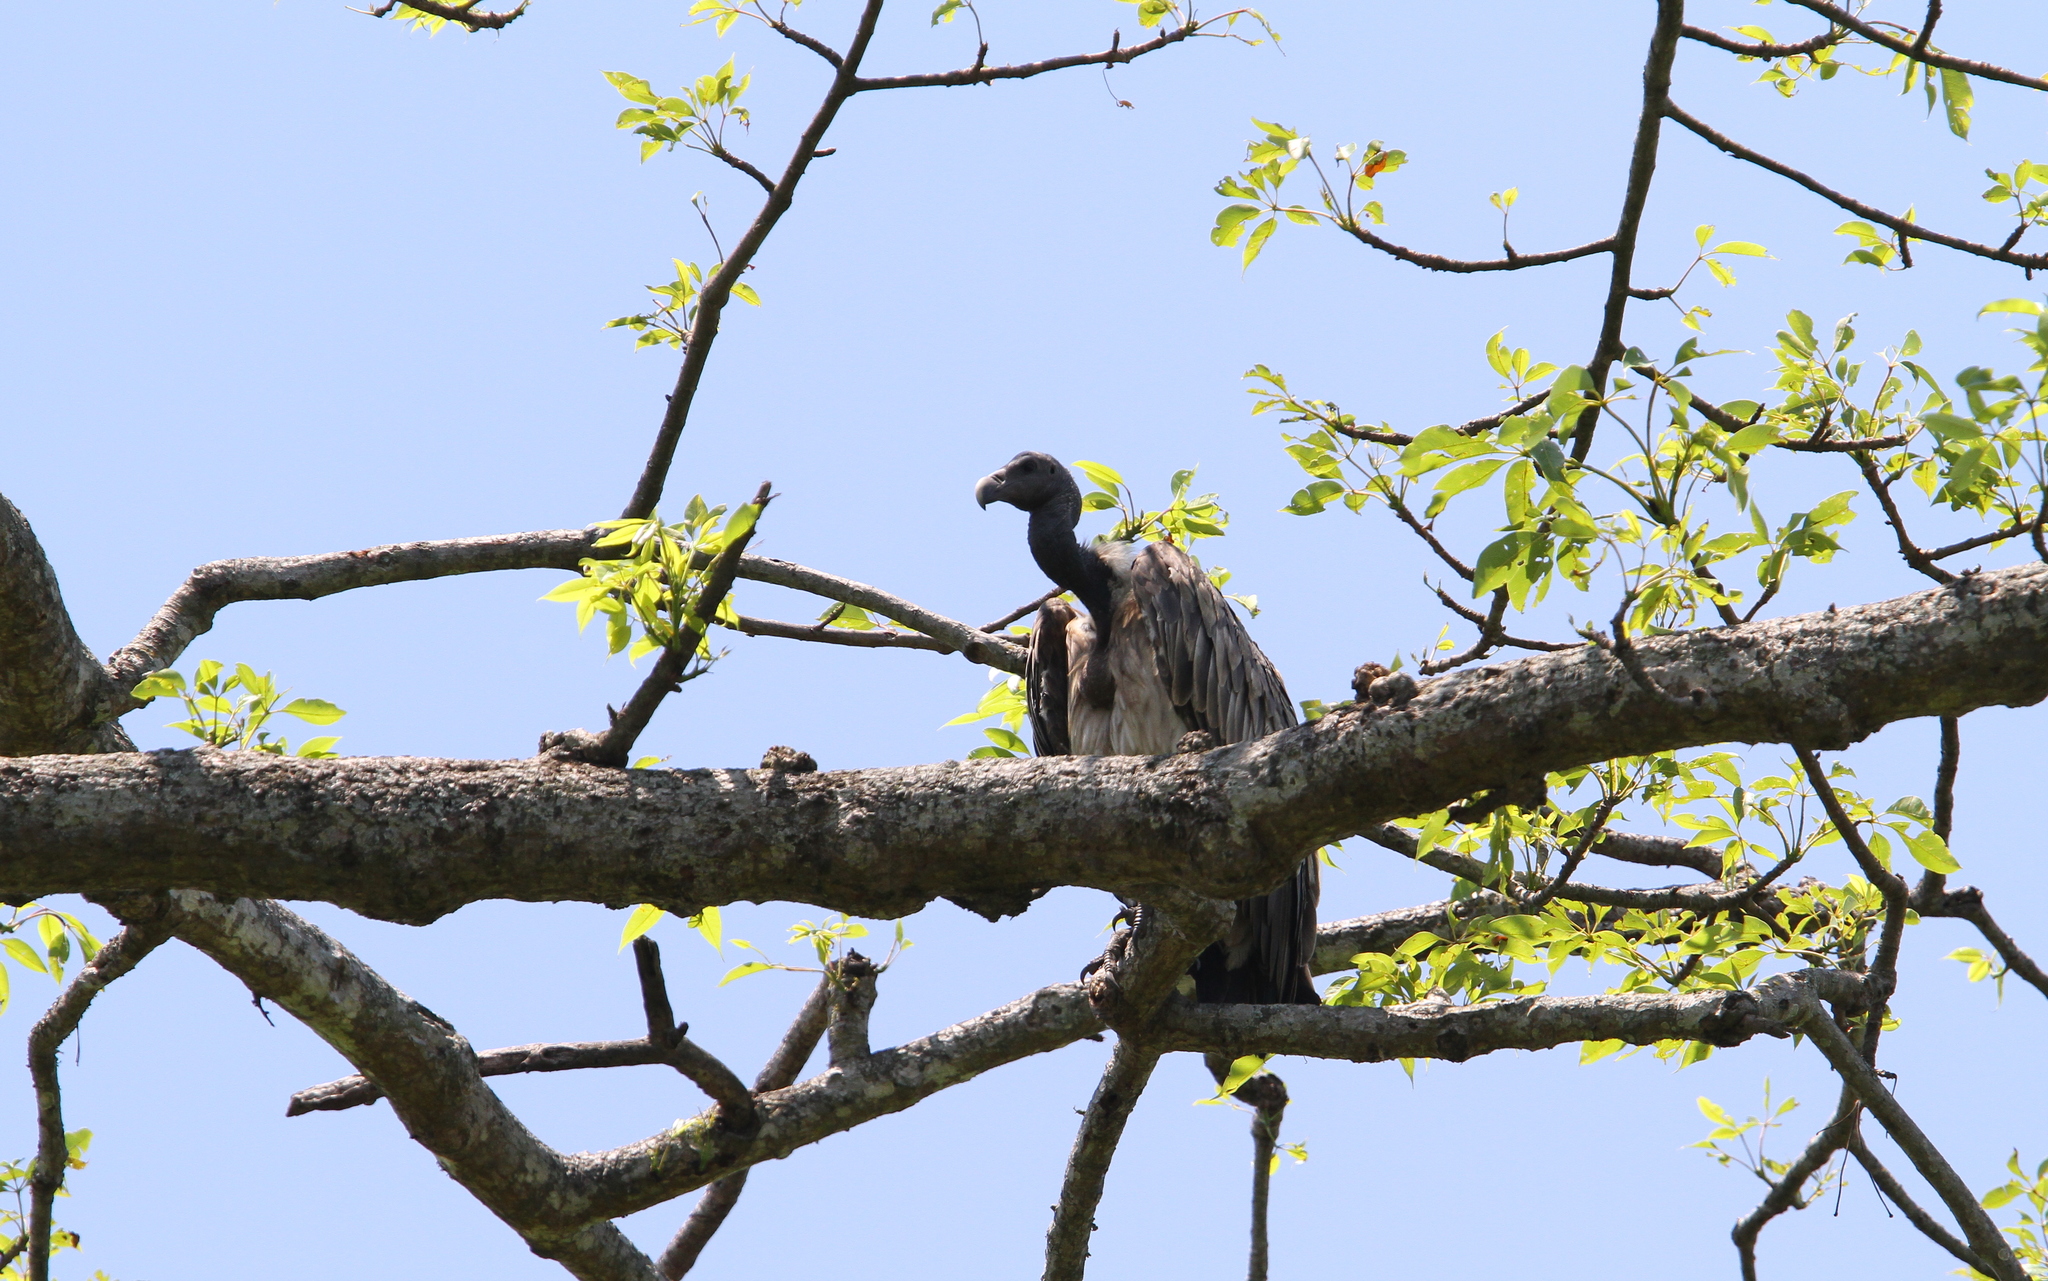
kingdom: Animalia
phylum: Chordata
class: Aves
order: Accipitriformes
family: Accipitridae
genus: Gyps
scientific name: Gyps tenuirostris
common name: Slender-billed vulture
